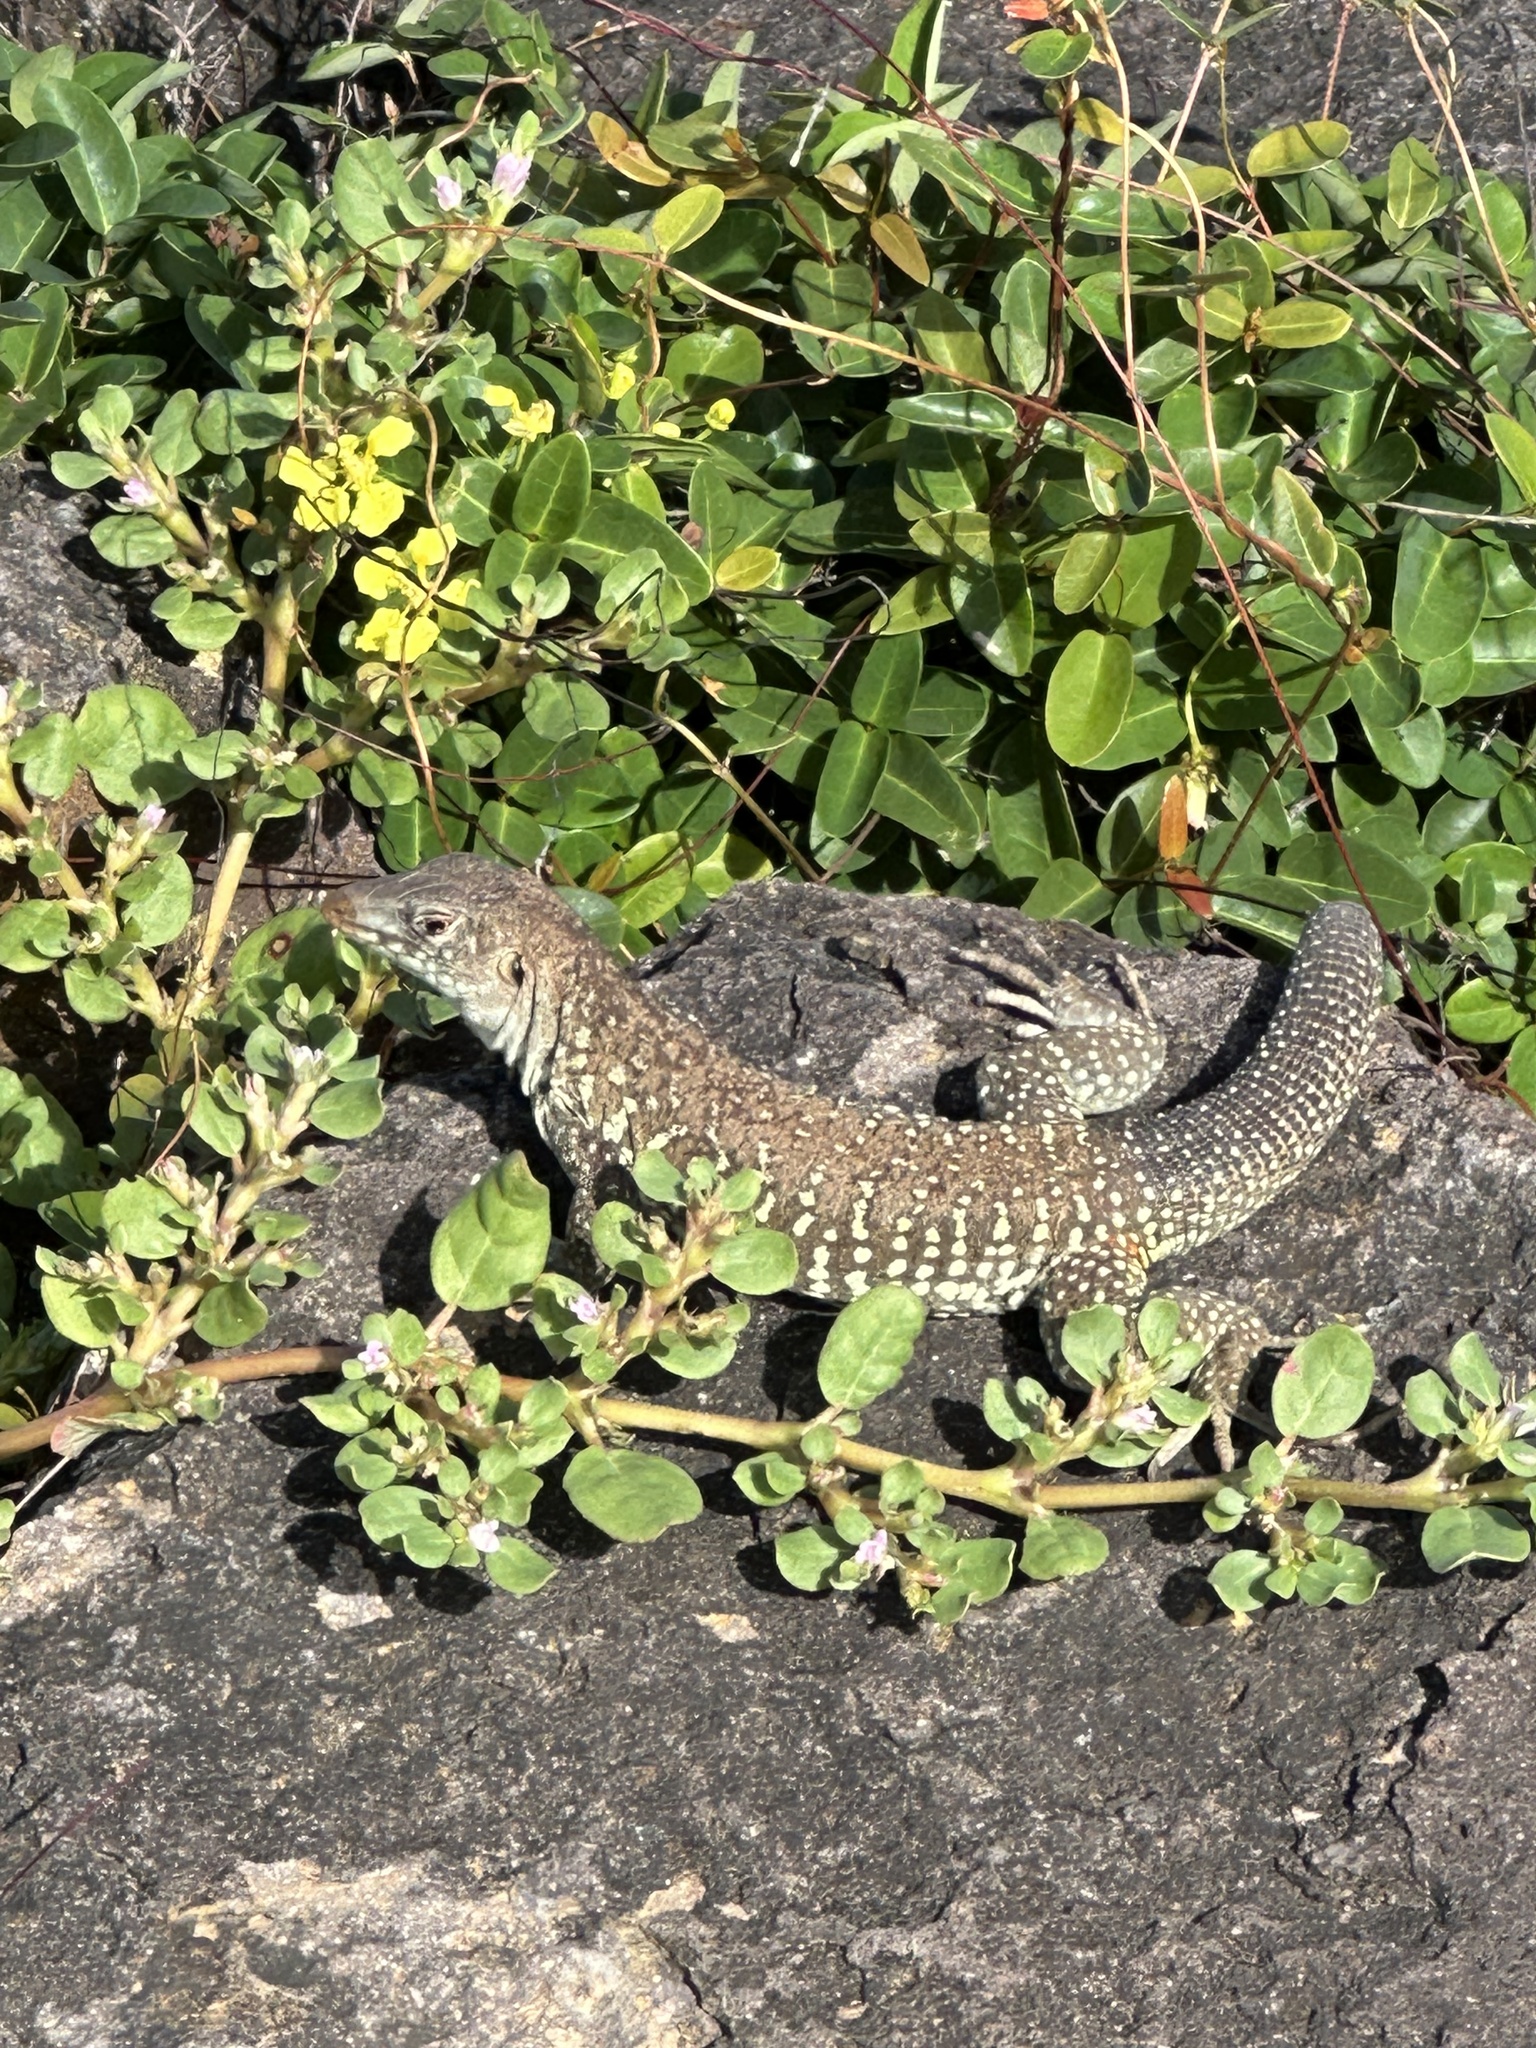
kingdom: Animalia
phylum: Chordata
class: Squamata
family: Teiidae
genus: Pholidoscelis
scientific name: Pholidoscelis plei
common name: Anguilla bank ameiva
